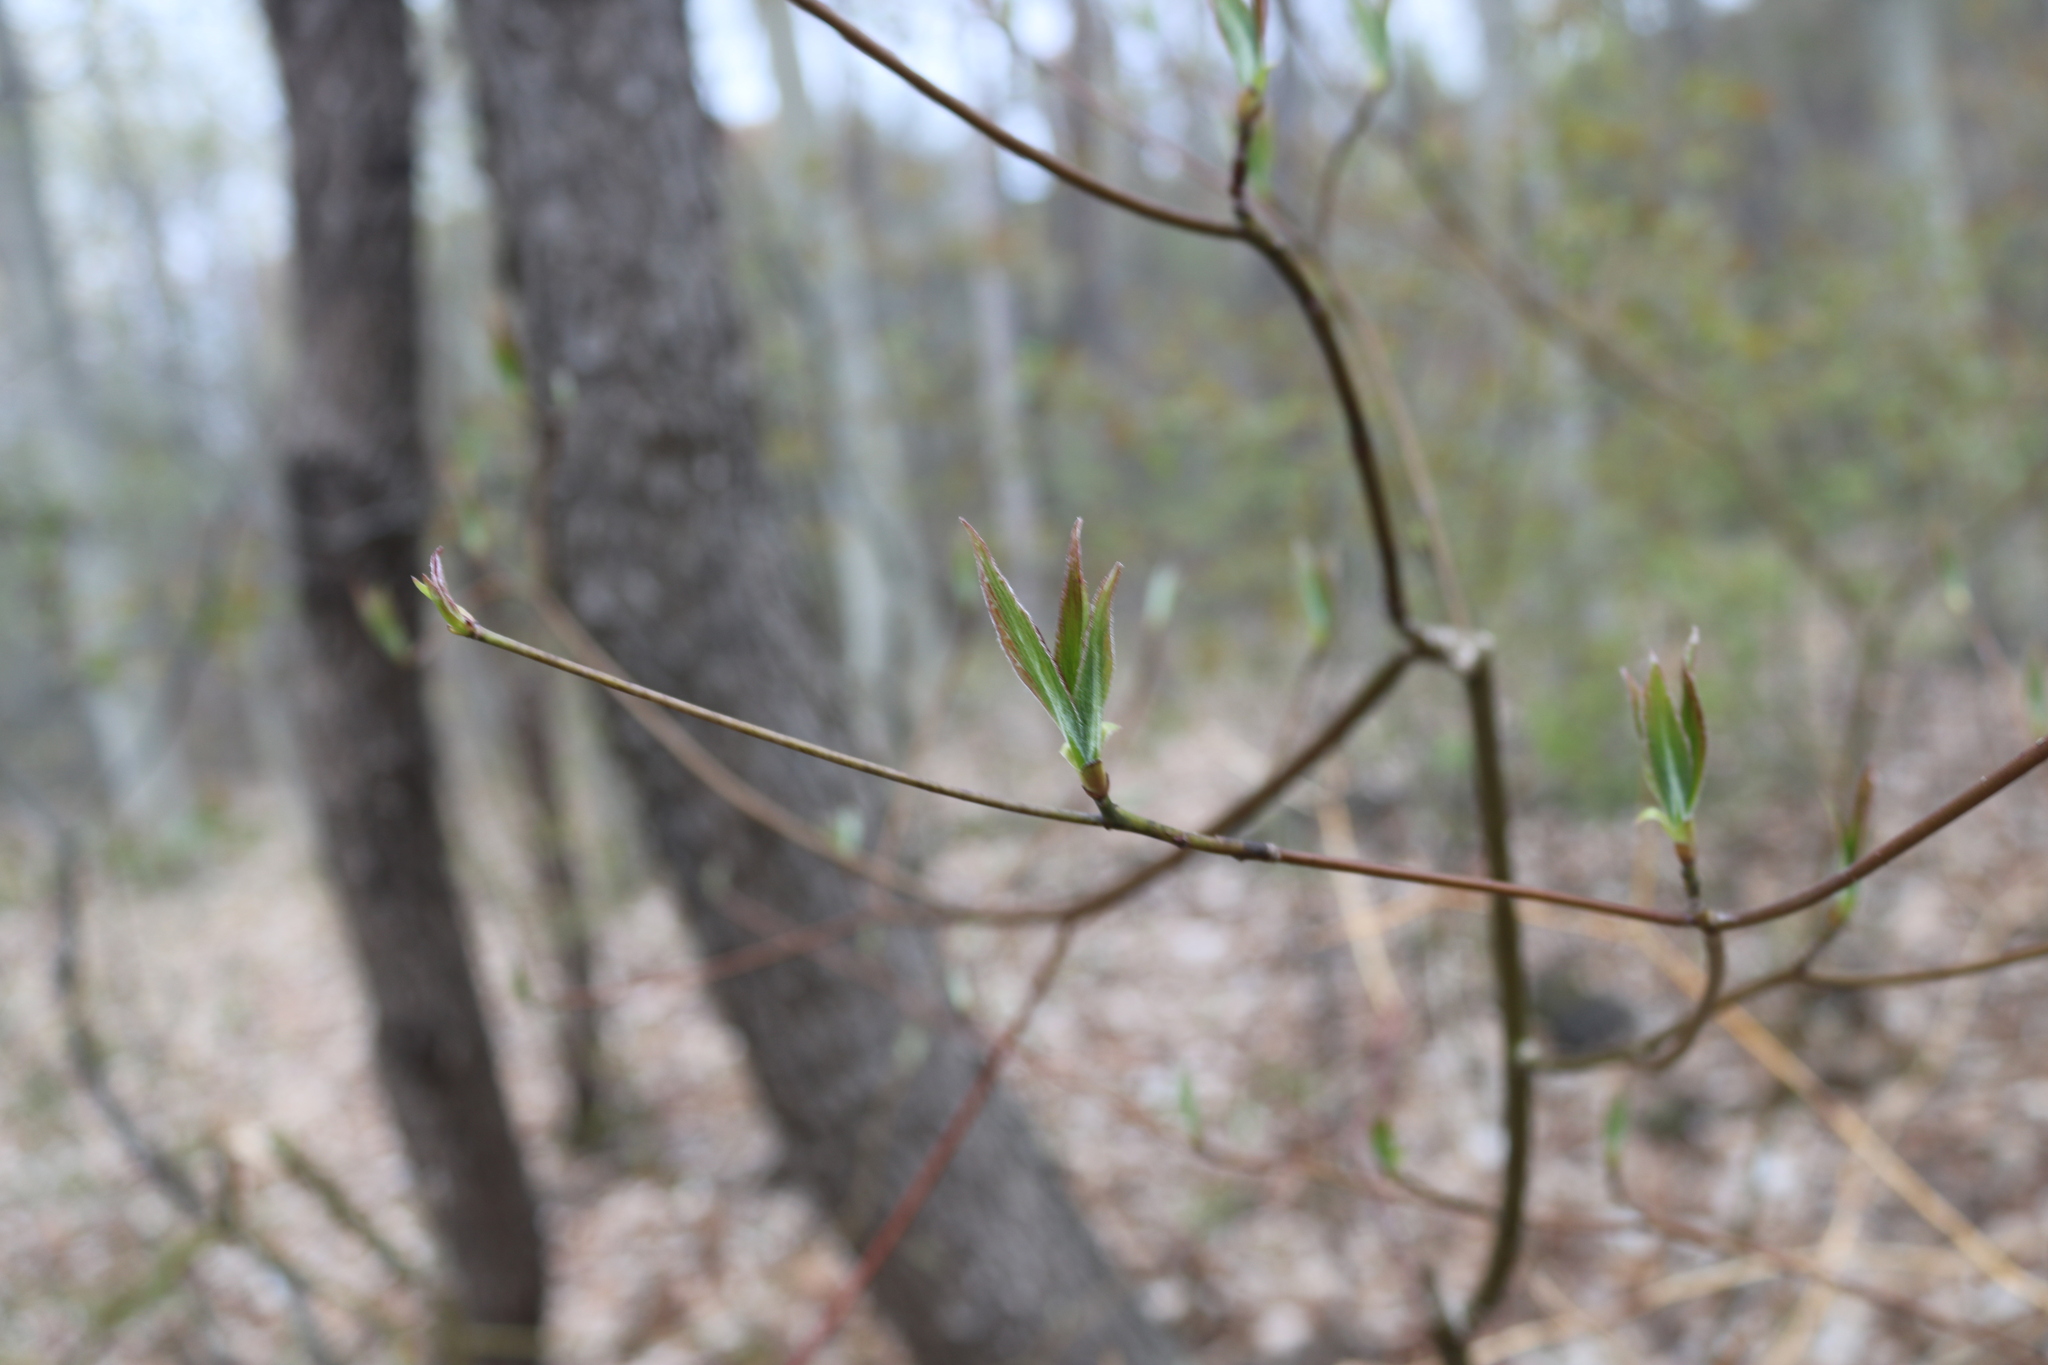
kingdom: Plantae
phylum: Tracheophyta
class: Magnoliopsida
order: Cornales
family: Cornaceae
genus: Cornus
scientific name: Cornus alternifolia
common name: Pagoda dogwood
